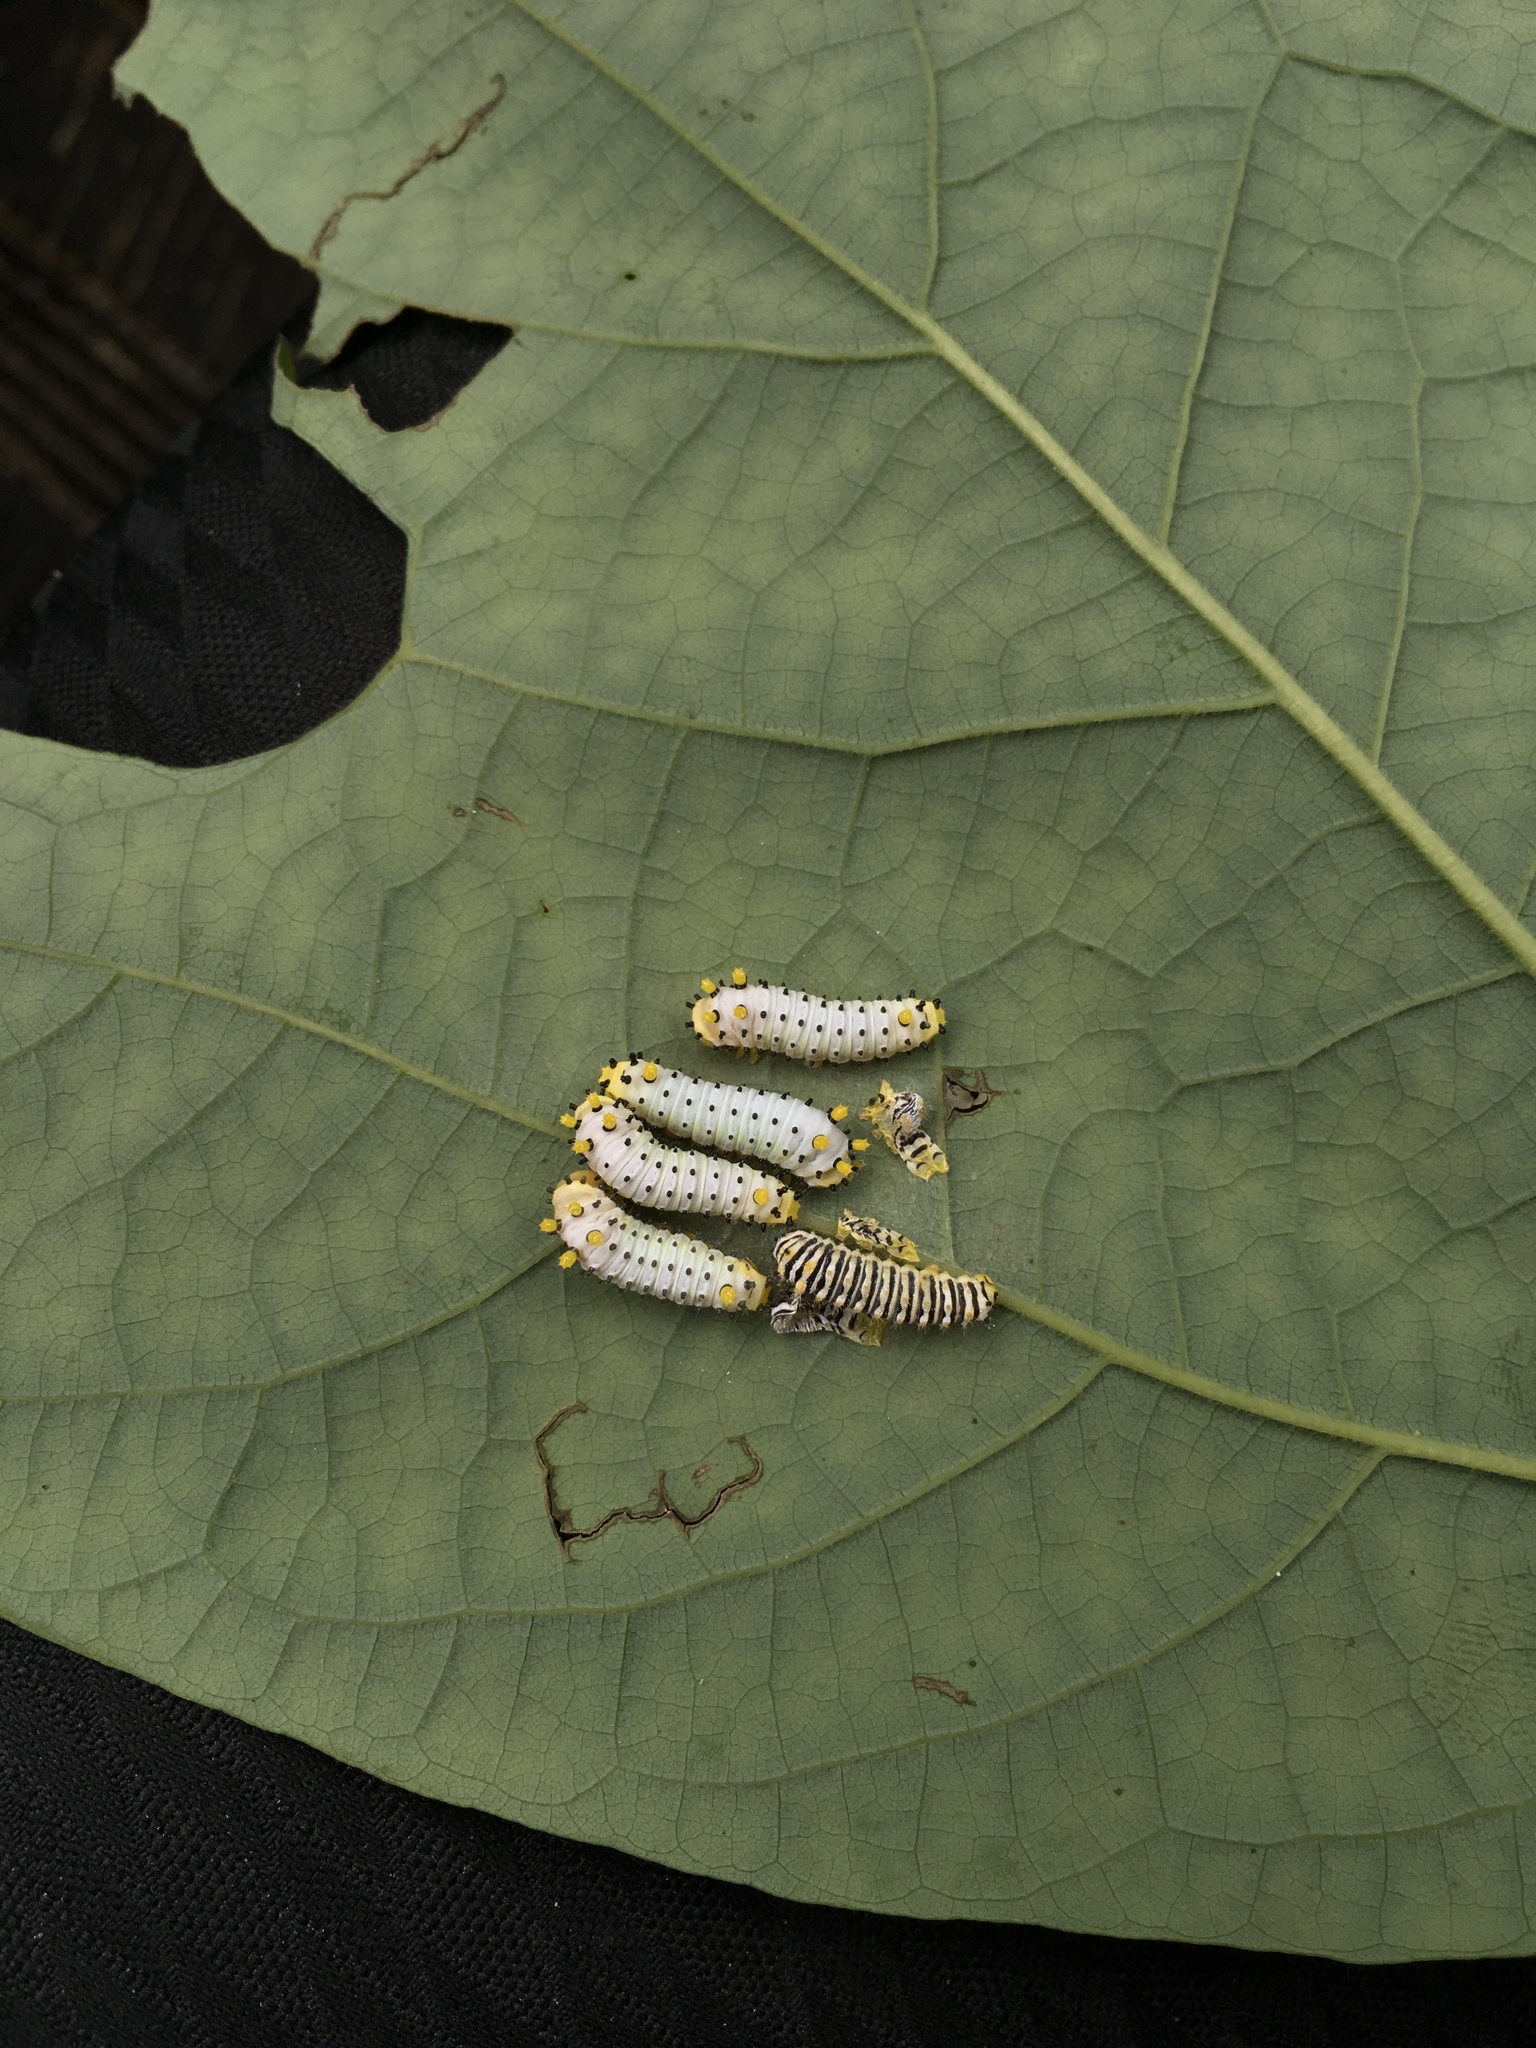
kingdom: Animalia
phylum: Arthropoda
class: Insecta
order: Lepidoptera
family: Saturniidae
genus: Callosamia
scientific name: Callosamia promethea
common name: Promethea silkmoth
